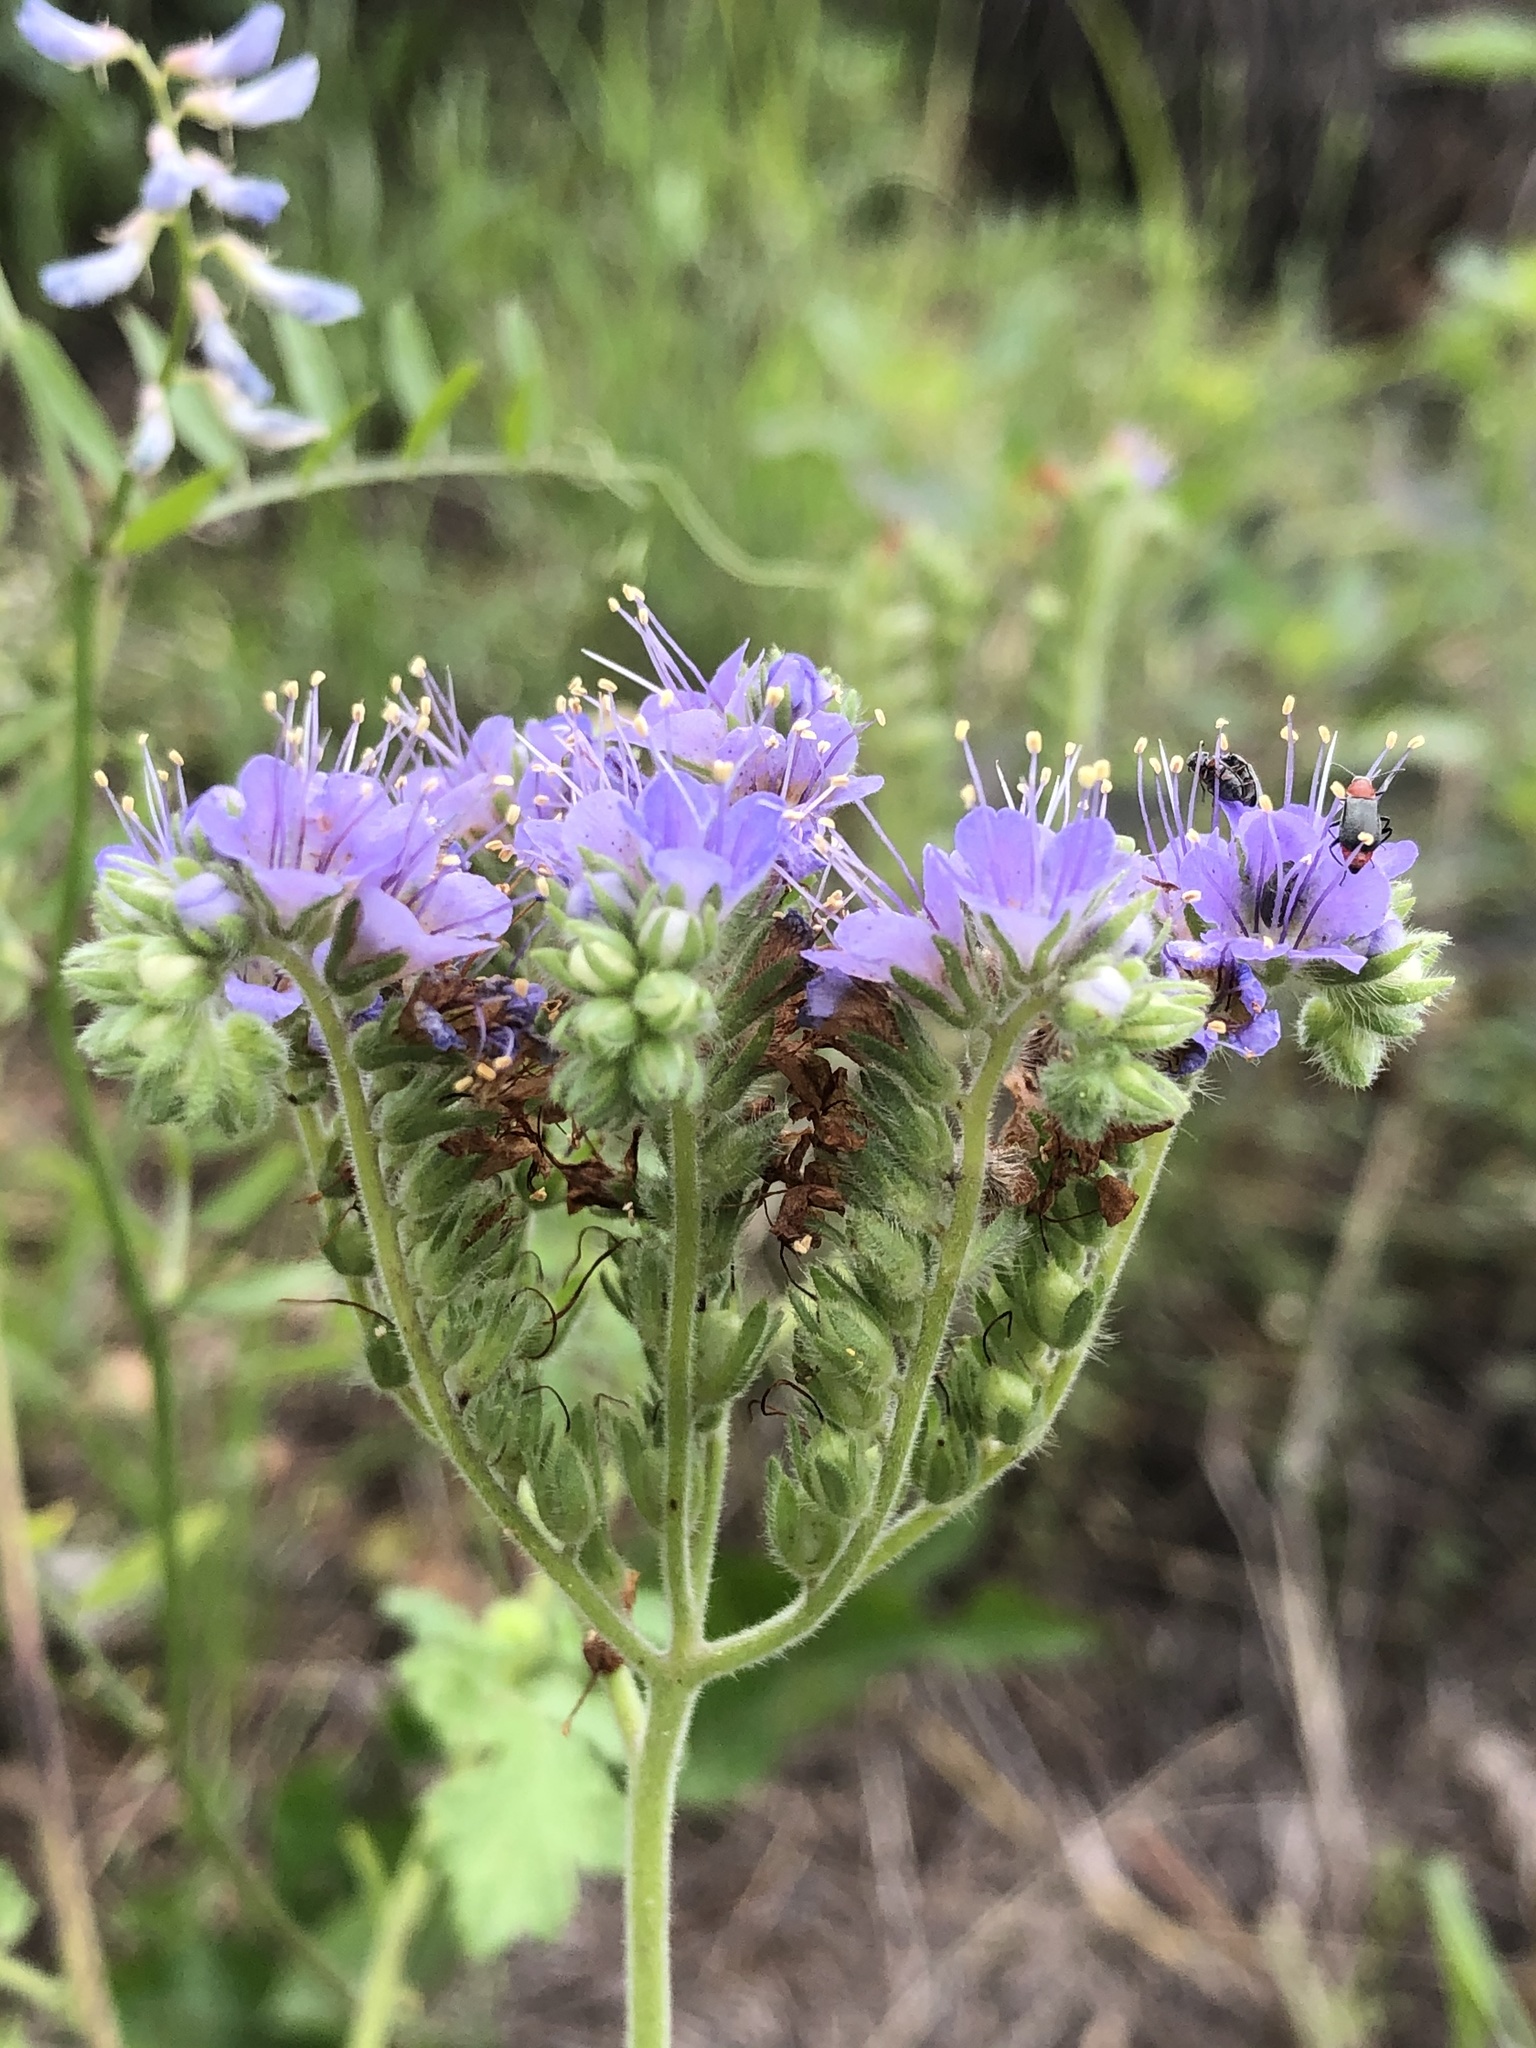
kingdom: Plantae
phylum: Tracheophyta
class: Magnoliopsida
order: Boraginales
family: Hydrophyllaceae
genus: Phacelia
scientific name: Phacelia congesta
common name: Blue curls
